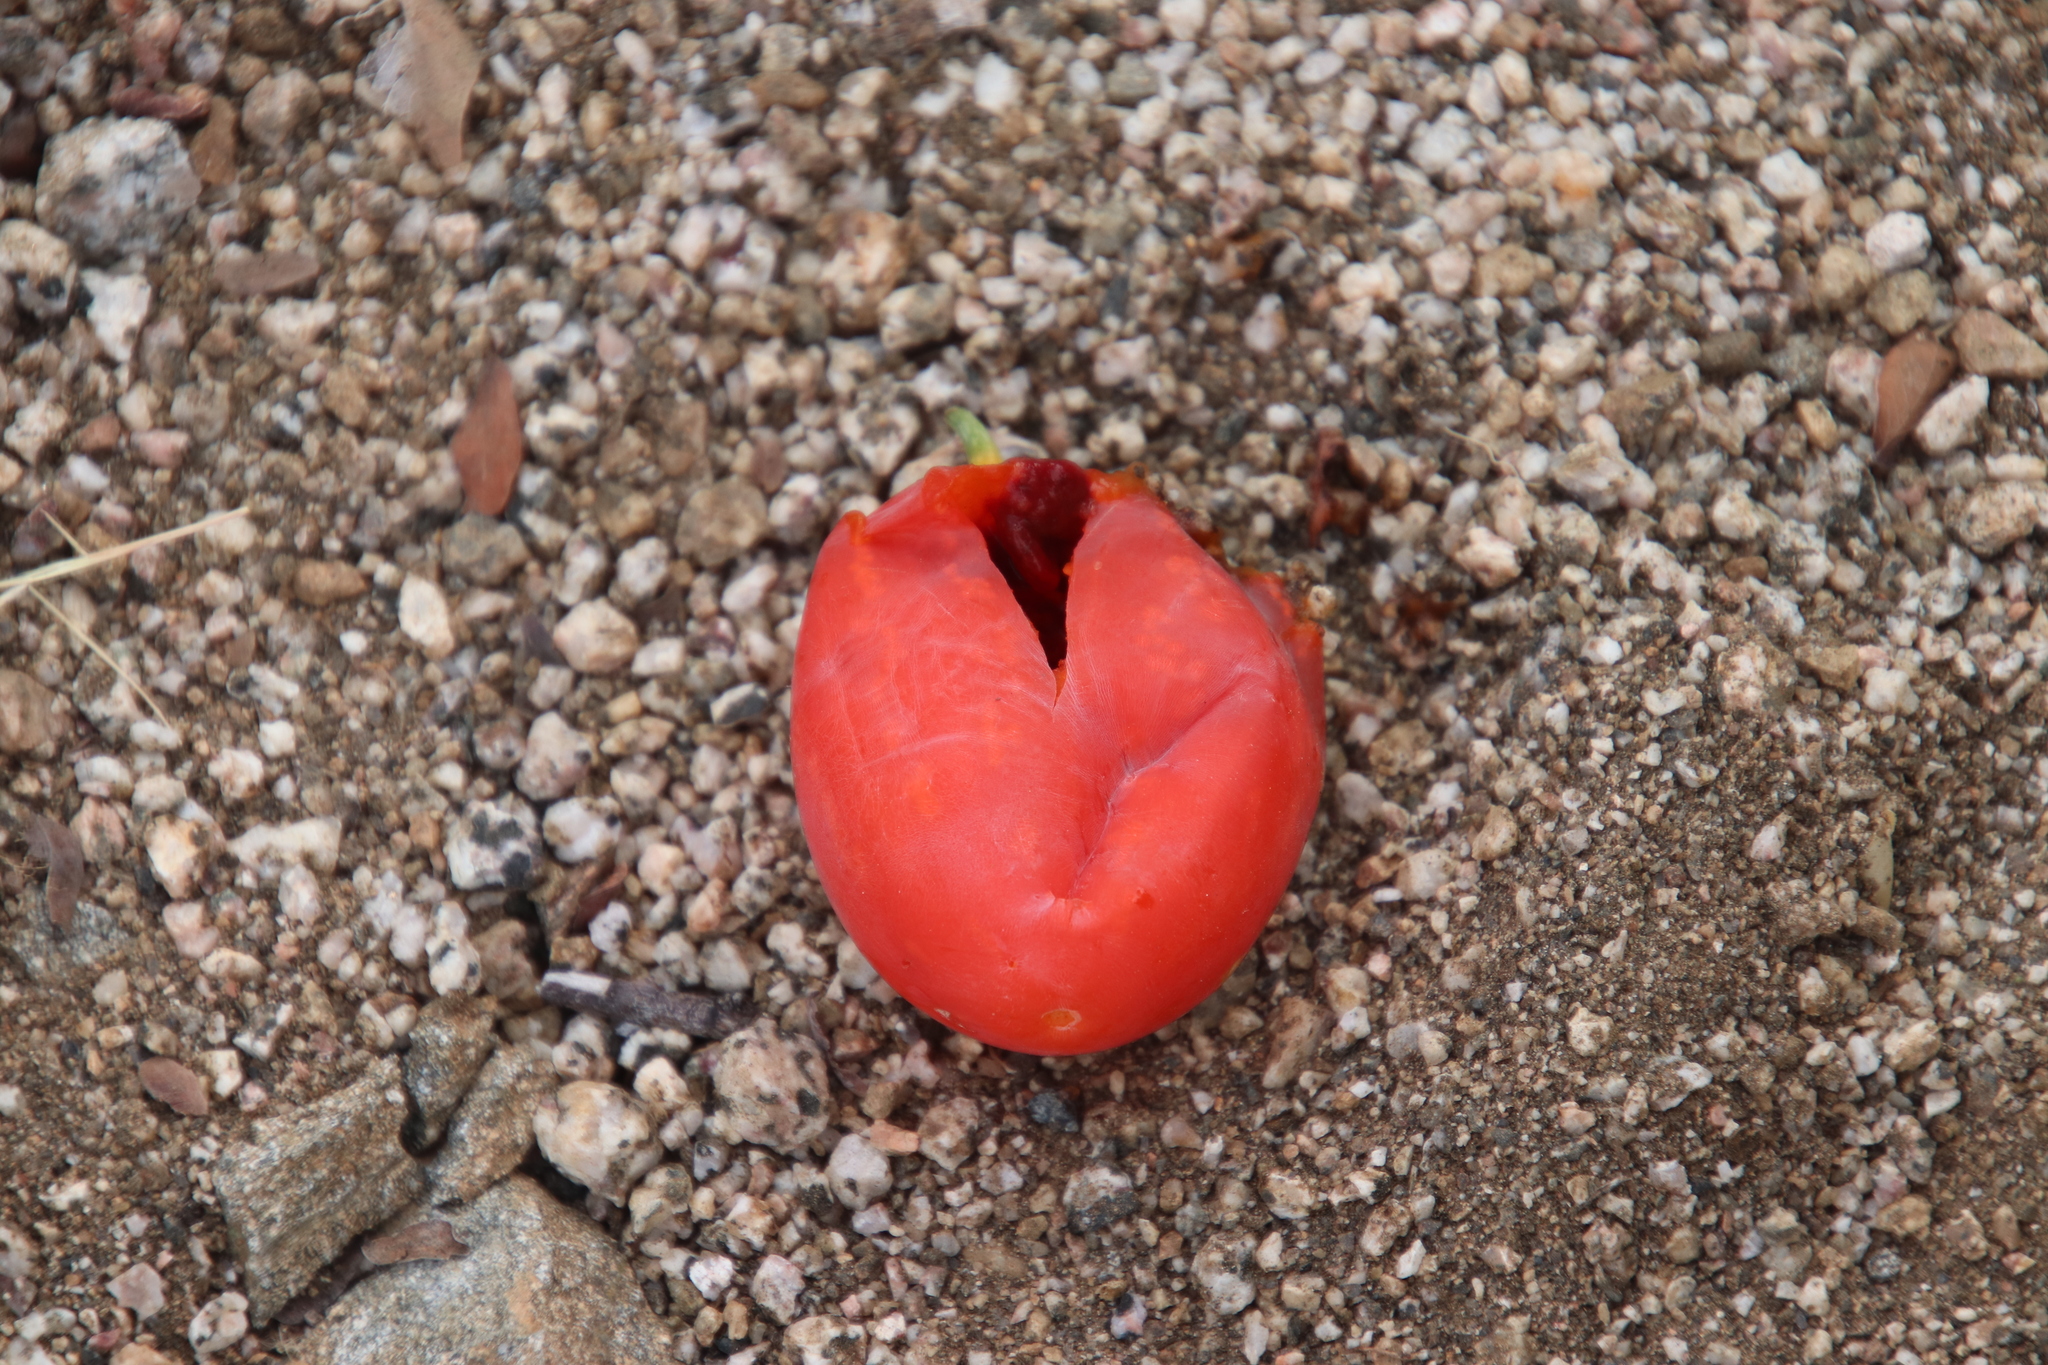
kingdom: Plantae
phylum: Tracheophyta
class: Magnoliopsida
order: Cucurbitales
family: Cucurbitaceae
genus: Ibervillea
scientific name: Ibervillea sonorae
